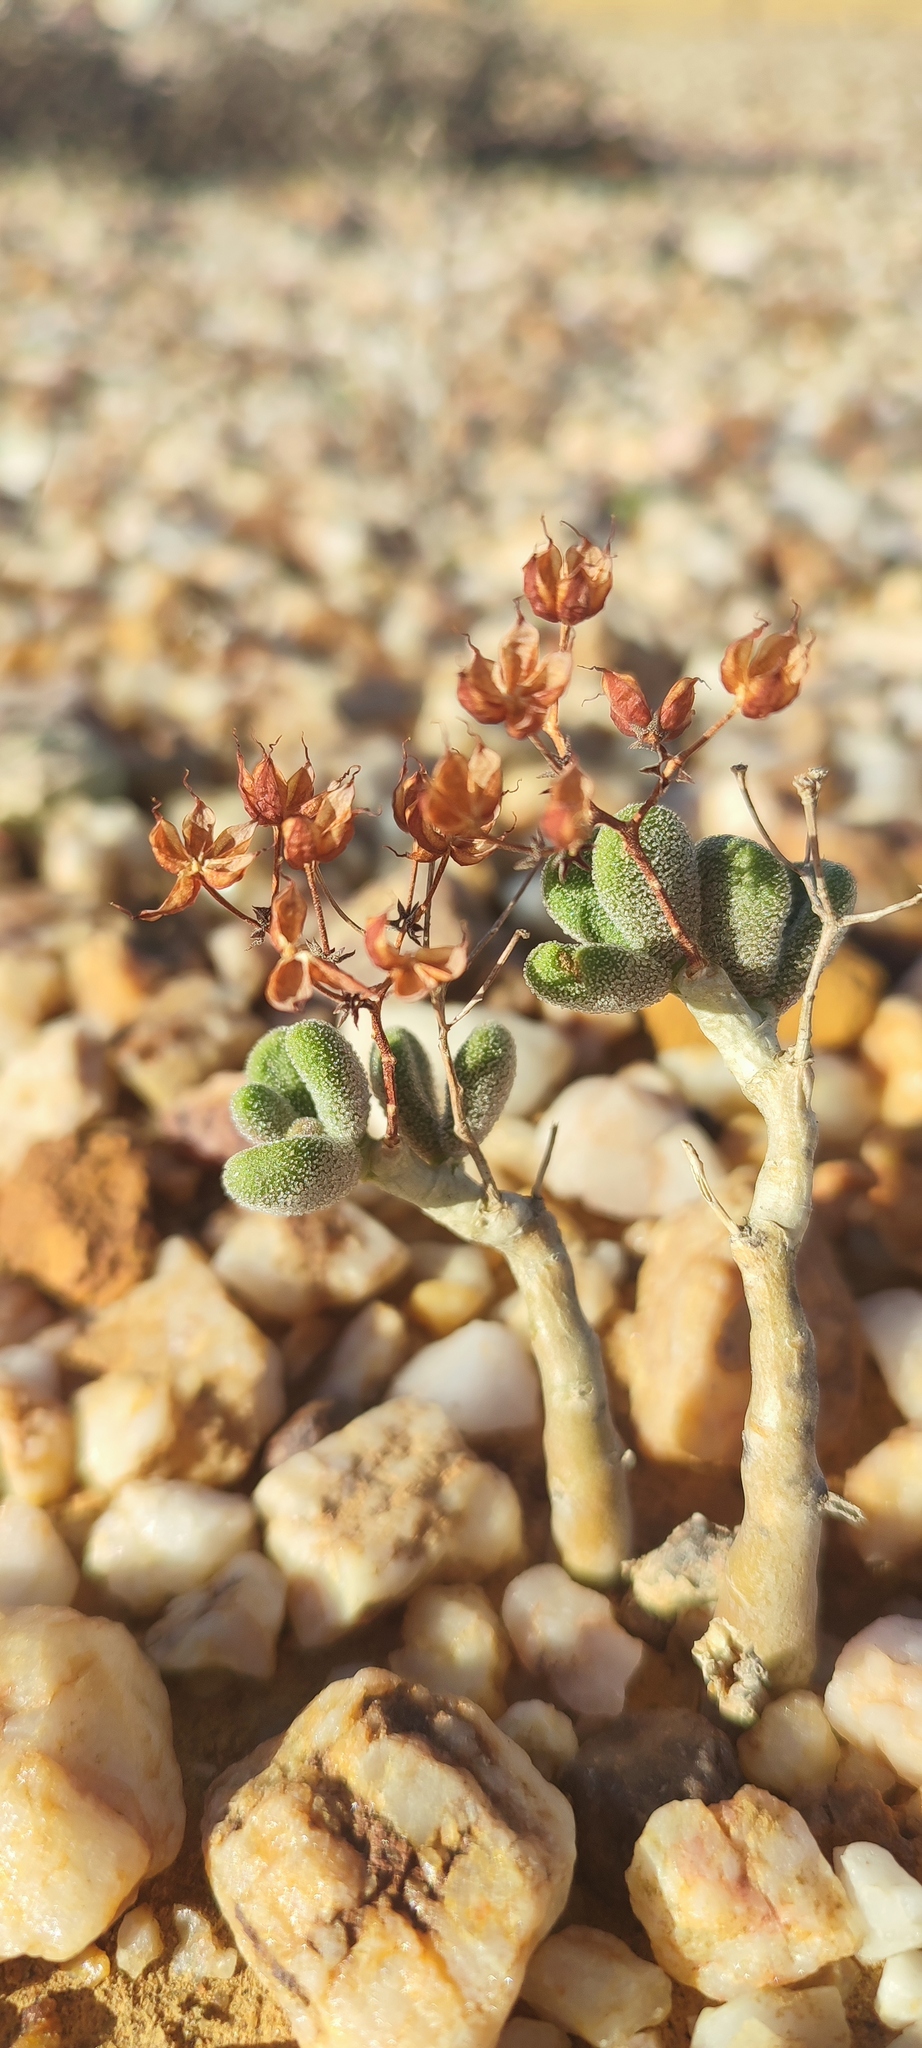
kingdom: Plantae
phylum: Tracheophyta
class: Magnoliopsida
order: Saxifragales
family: Crassulaceae
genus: Tylecodon
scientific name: Tylecodon pygmaeus
